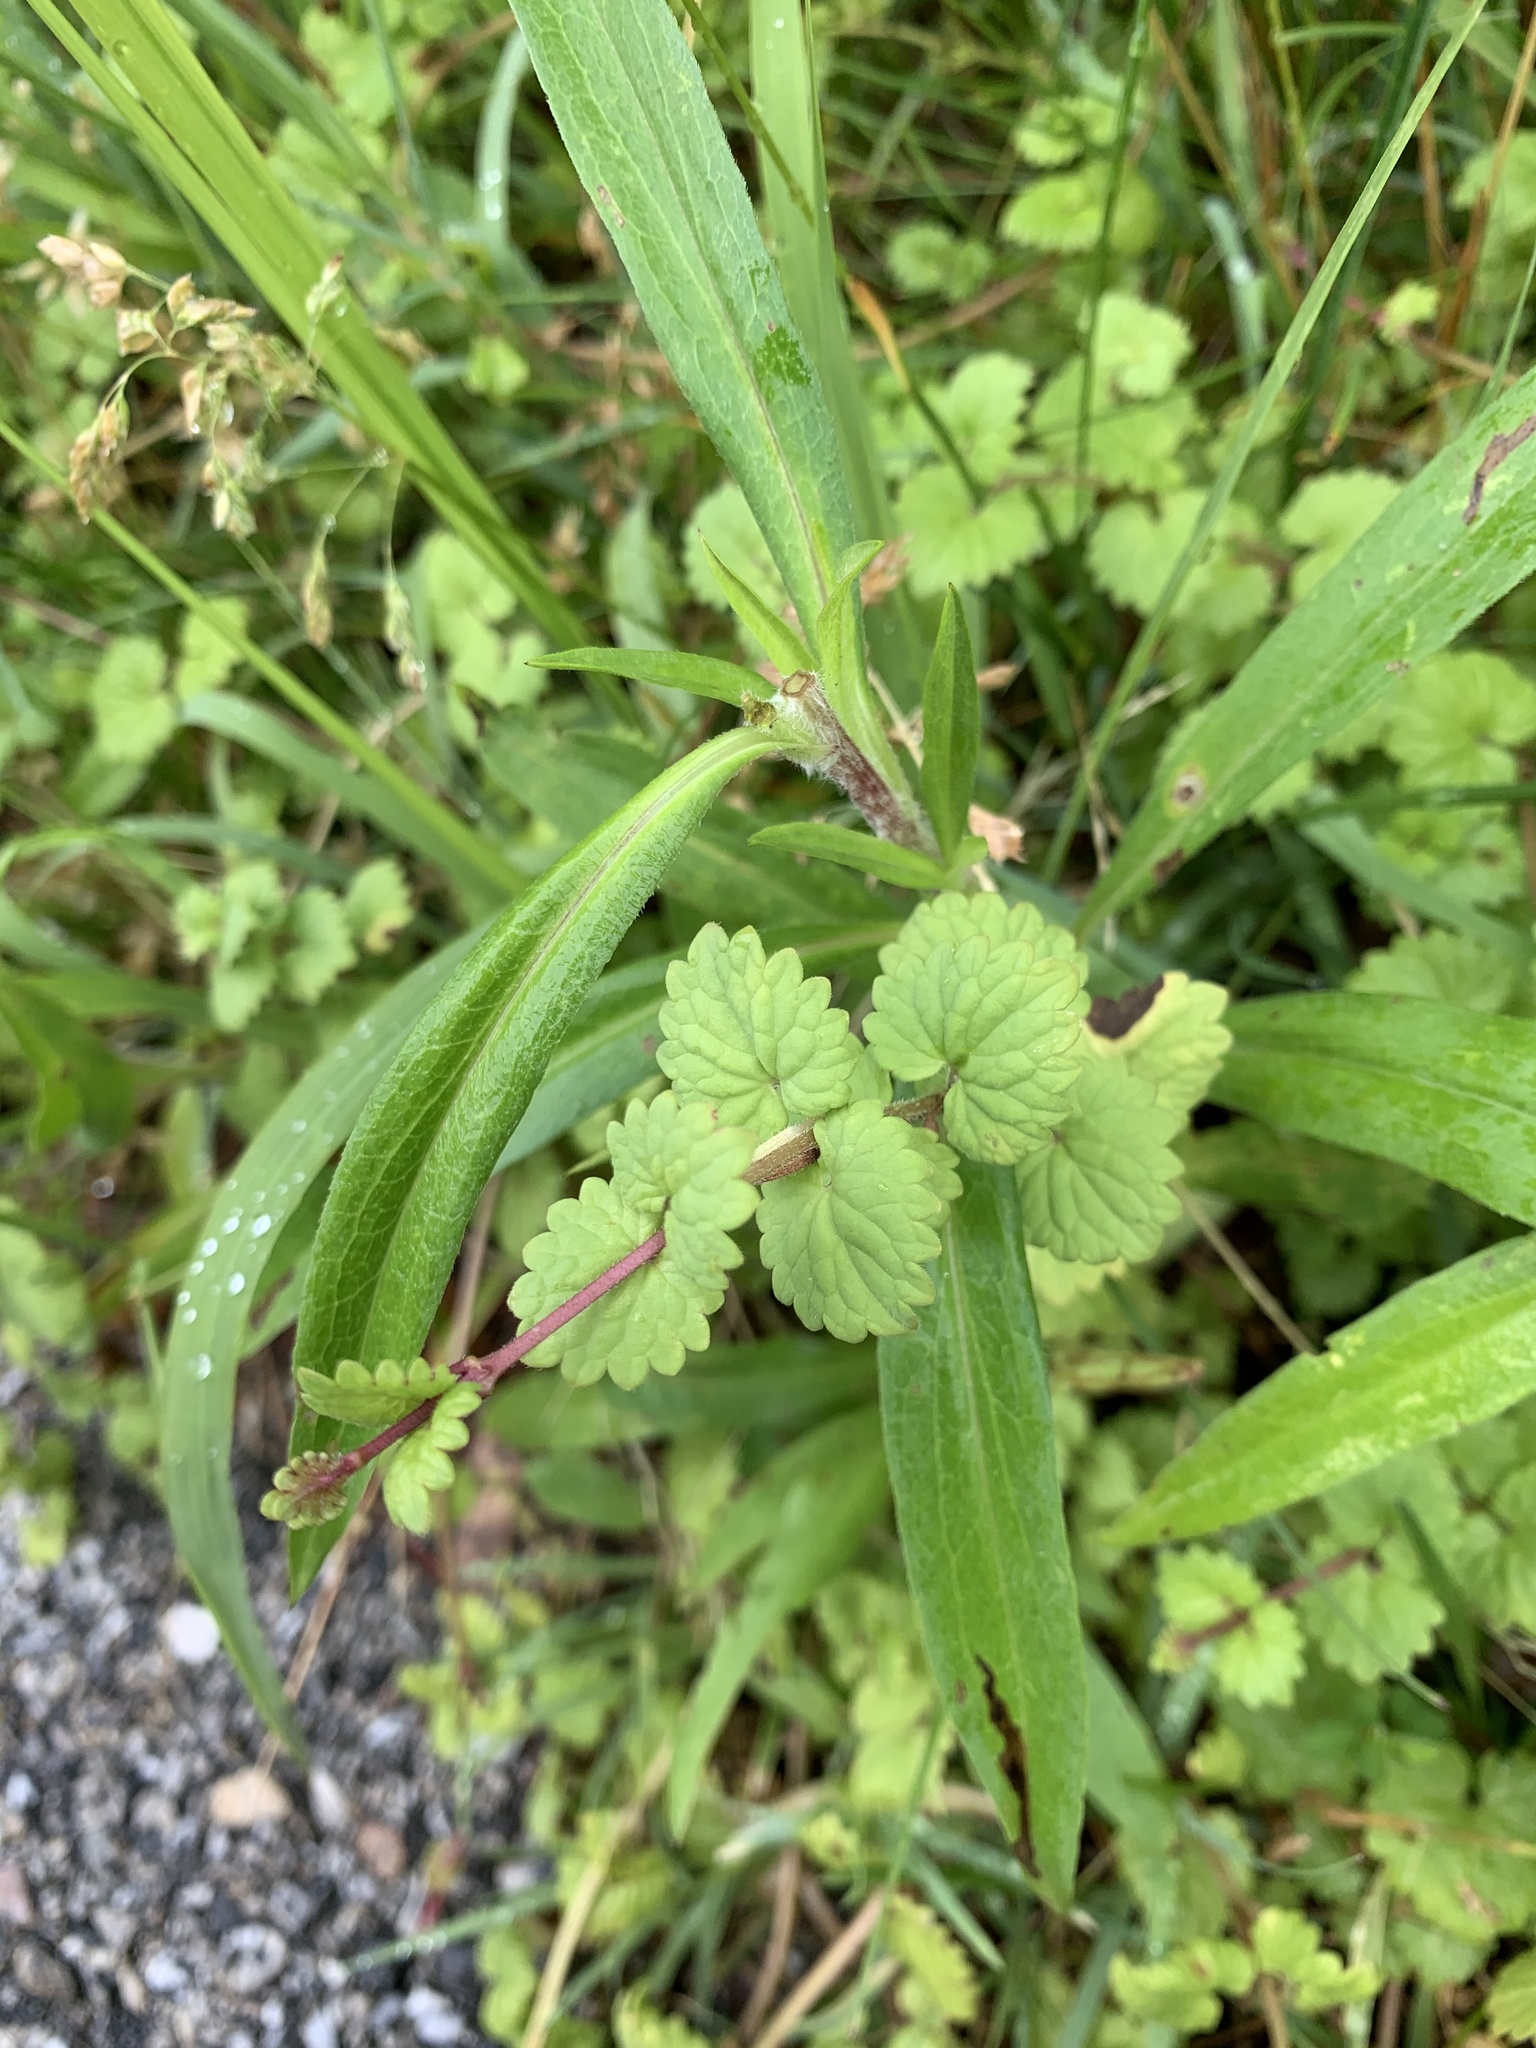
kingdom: Plantae
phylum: Tracheophyta
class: Magnoliopsida
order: Lamiales
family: Lamiaceae
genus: Glechoma
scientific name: Glechoma hederacea
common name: Ground ivy
